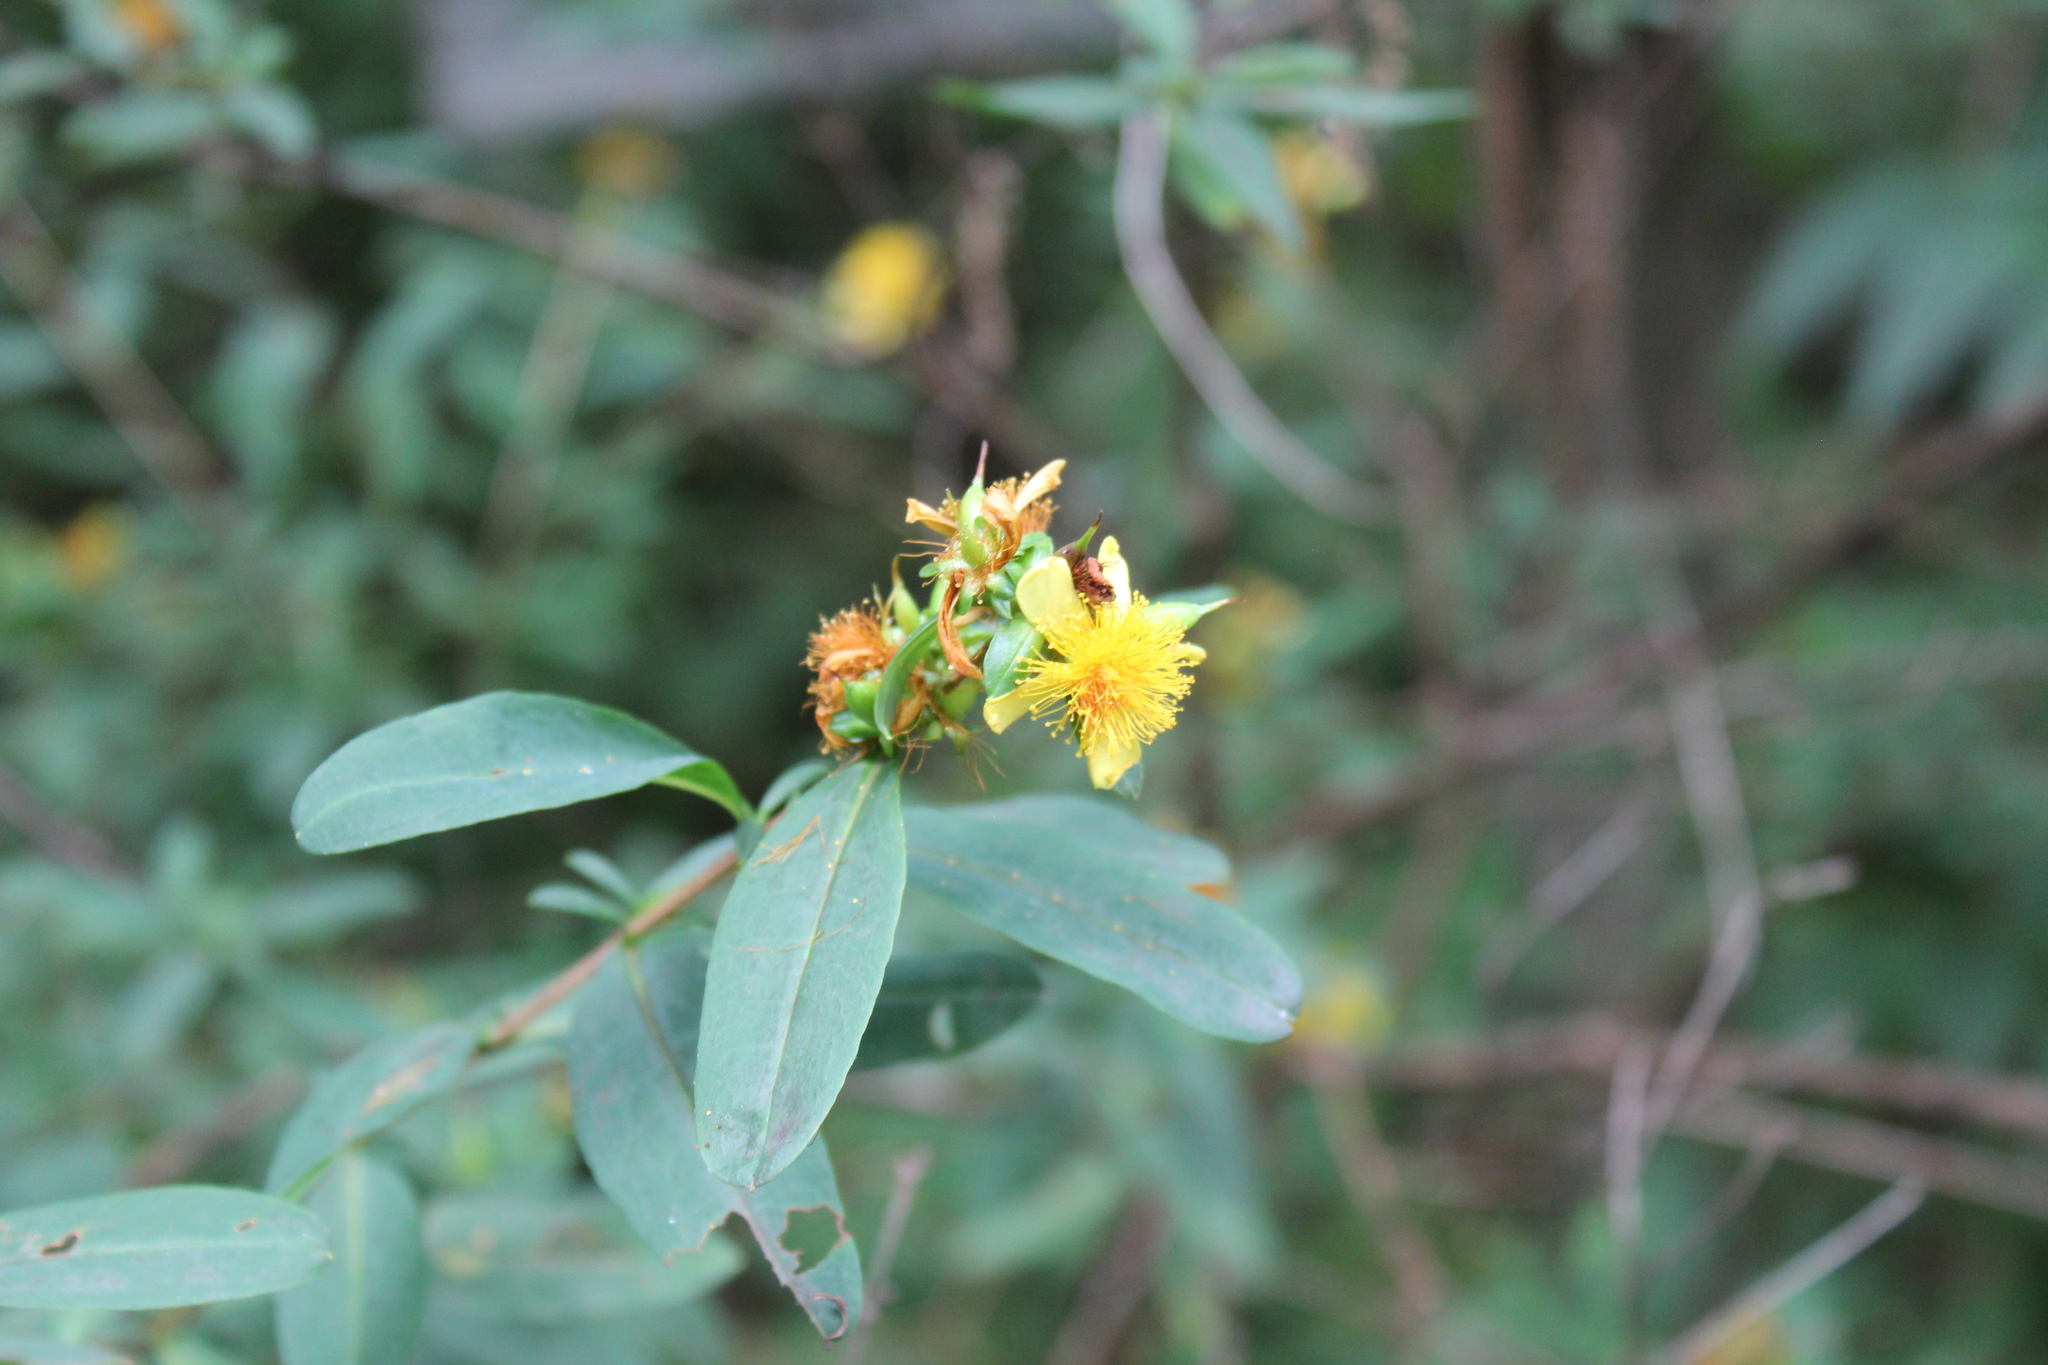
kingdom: Plantae
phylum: Tracheophyta
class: Magnoliopsida
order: Malpighiales
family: Hypericaceae
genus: Hypericum
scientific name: Hypericum prolificum
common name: Shrubby st. john's-wort
